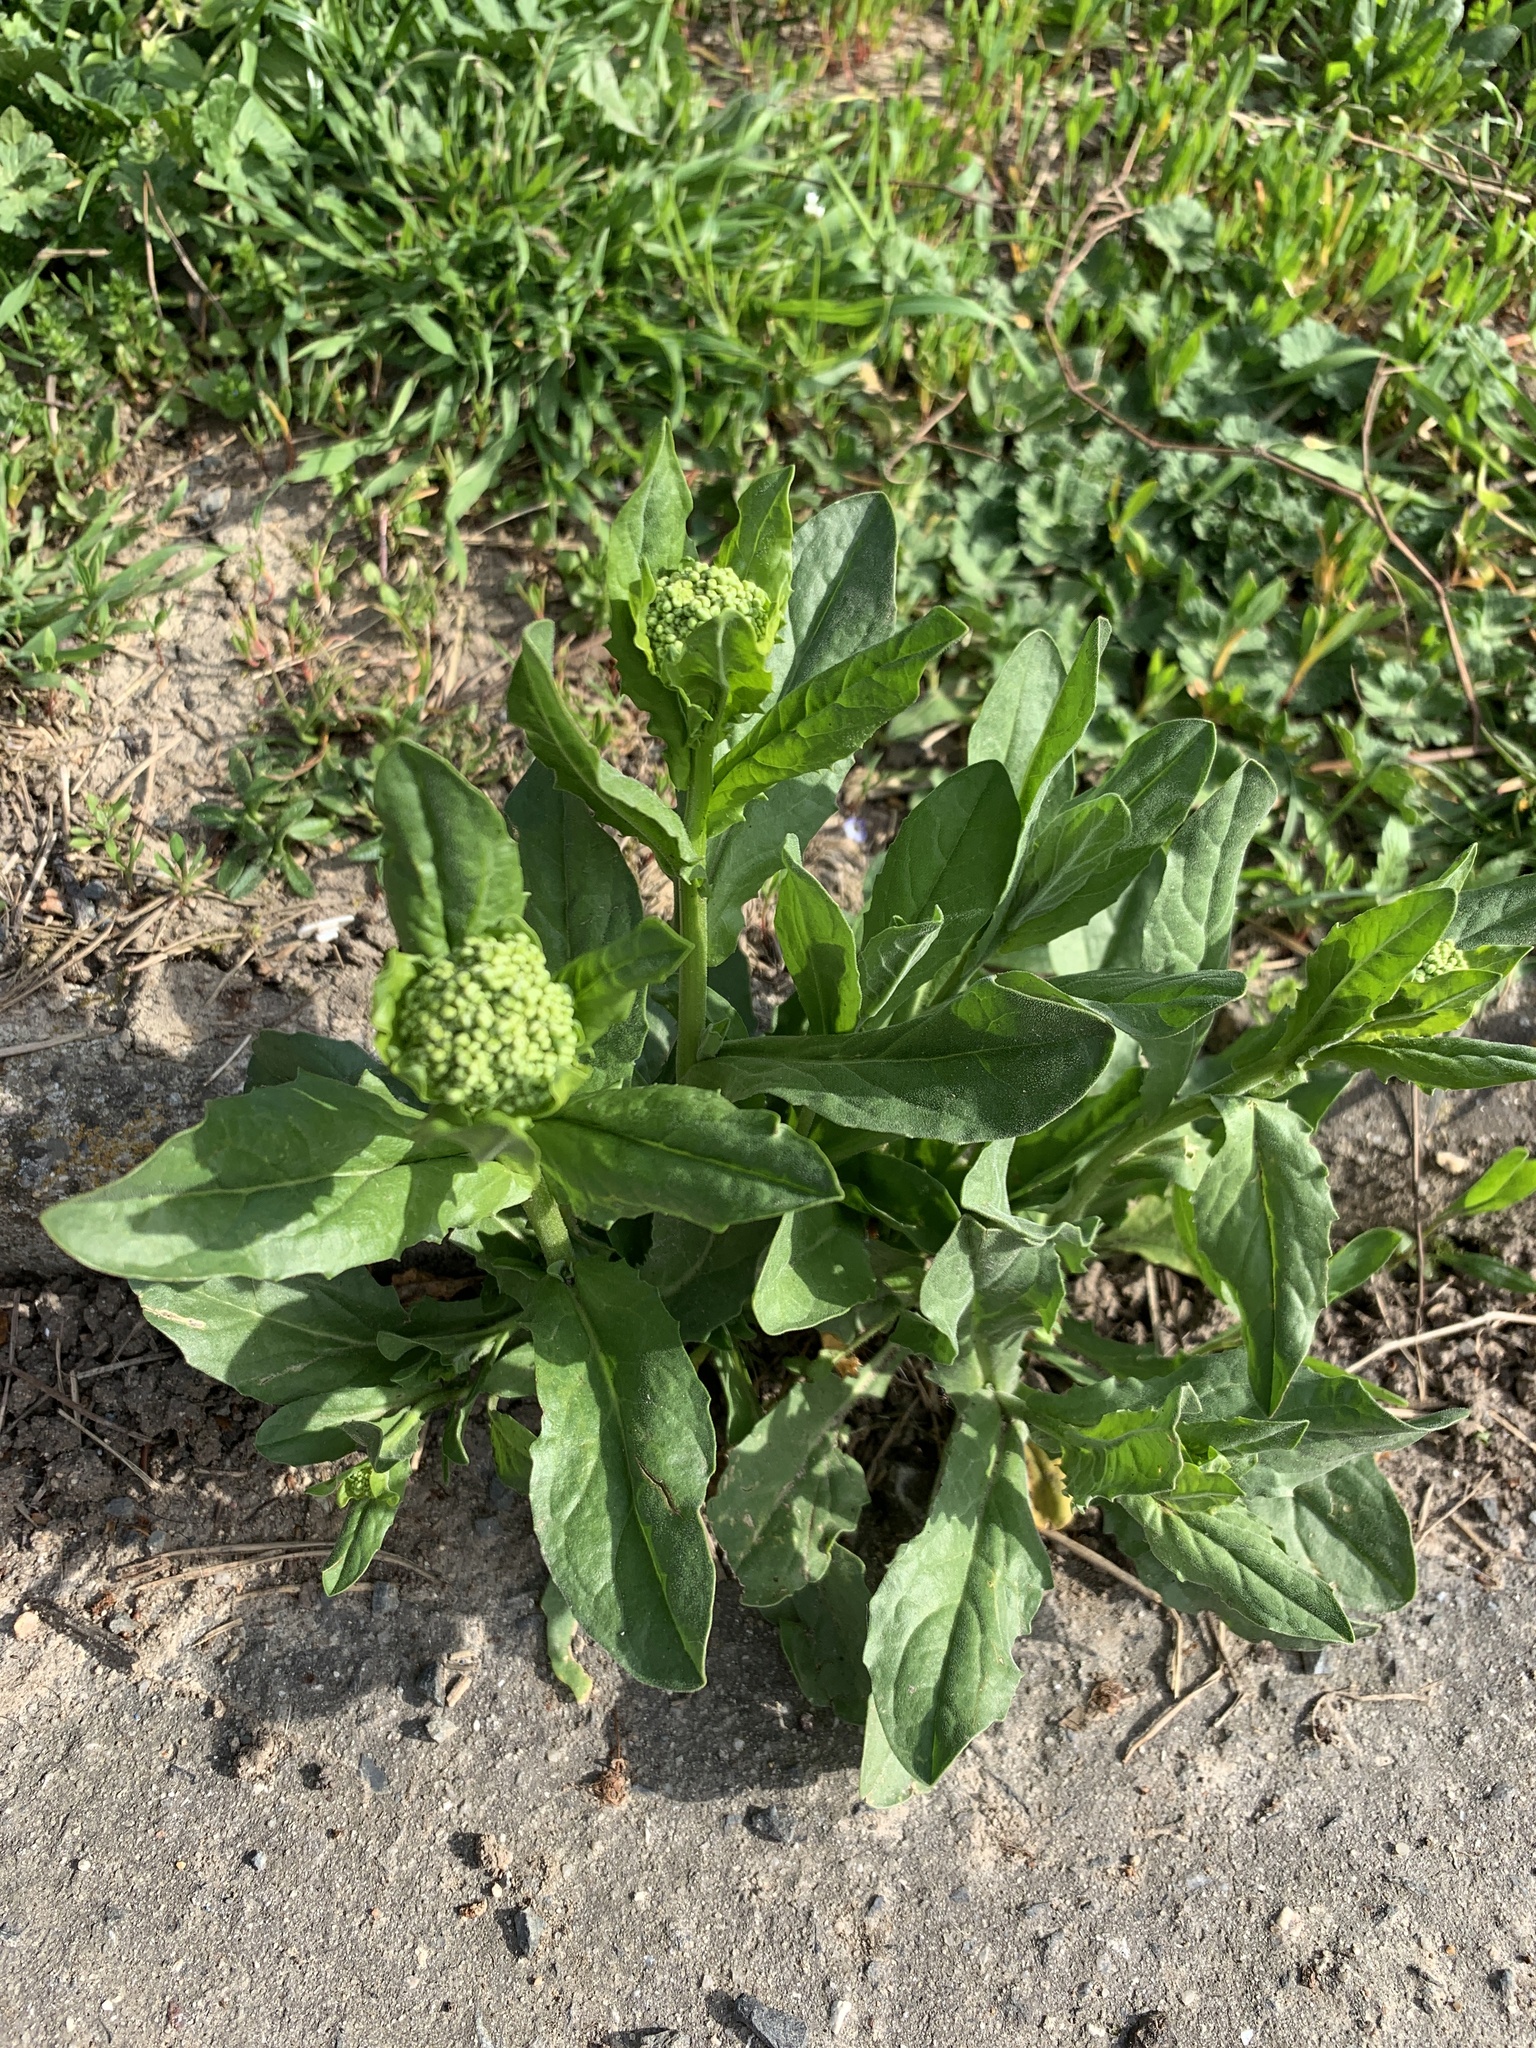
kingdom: Plantae
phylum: Tracheophyta
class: Magnoliopsida
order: Brassicales
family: Brassicaceae
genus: Lepidium
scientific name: Lepidium draba
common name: Hoary cress
